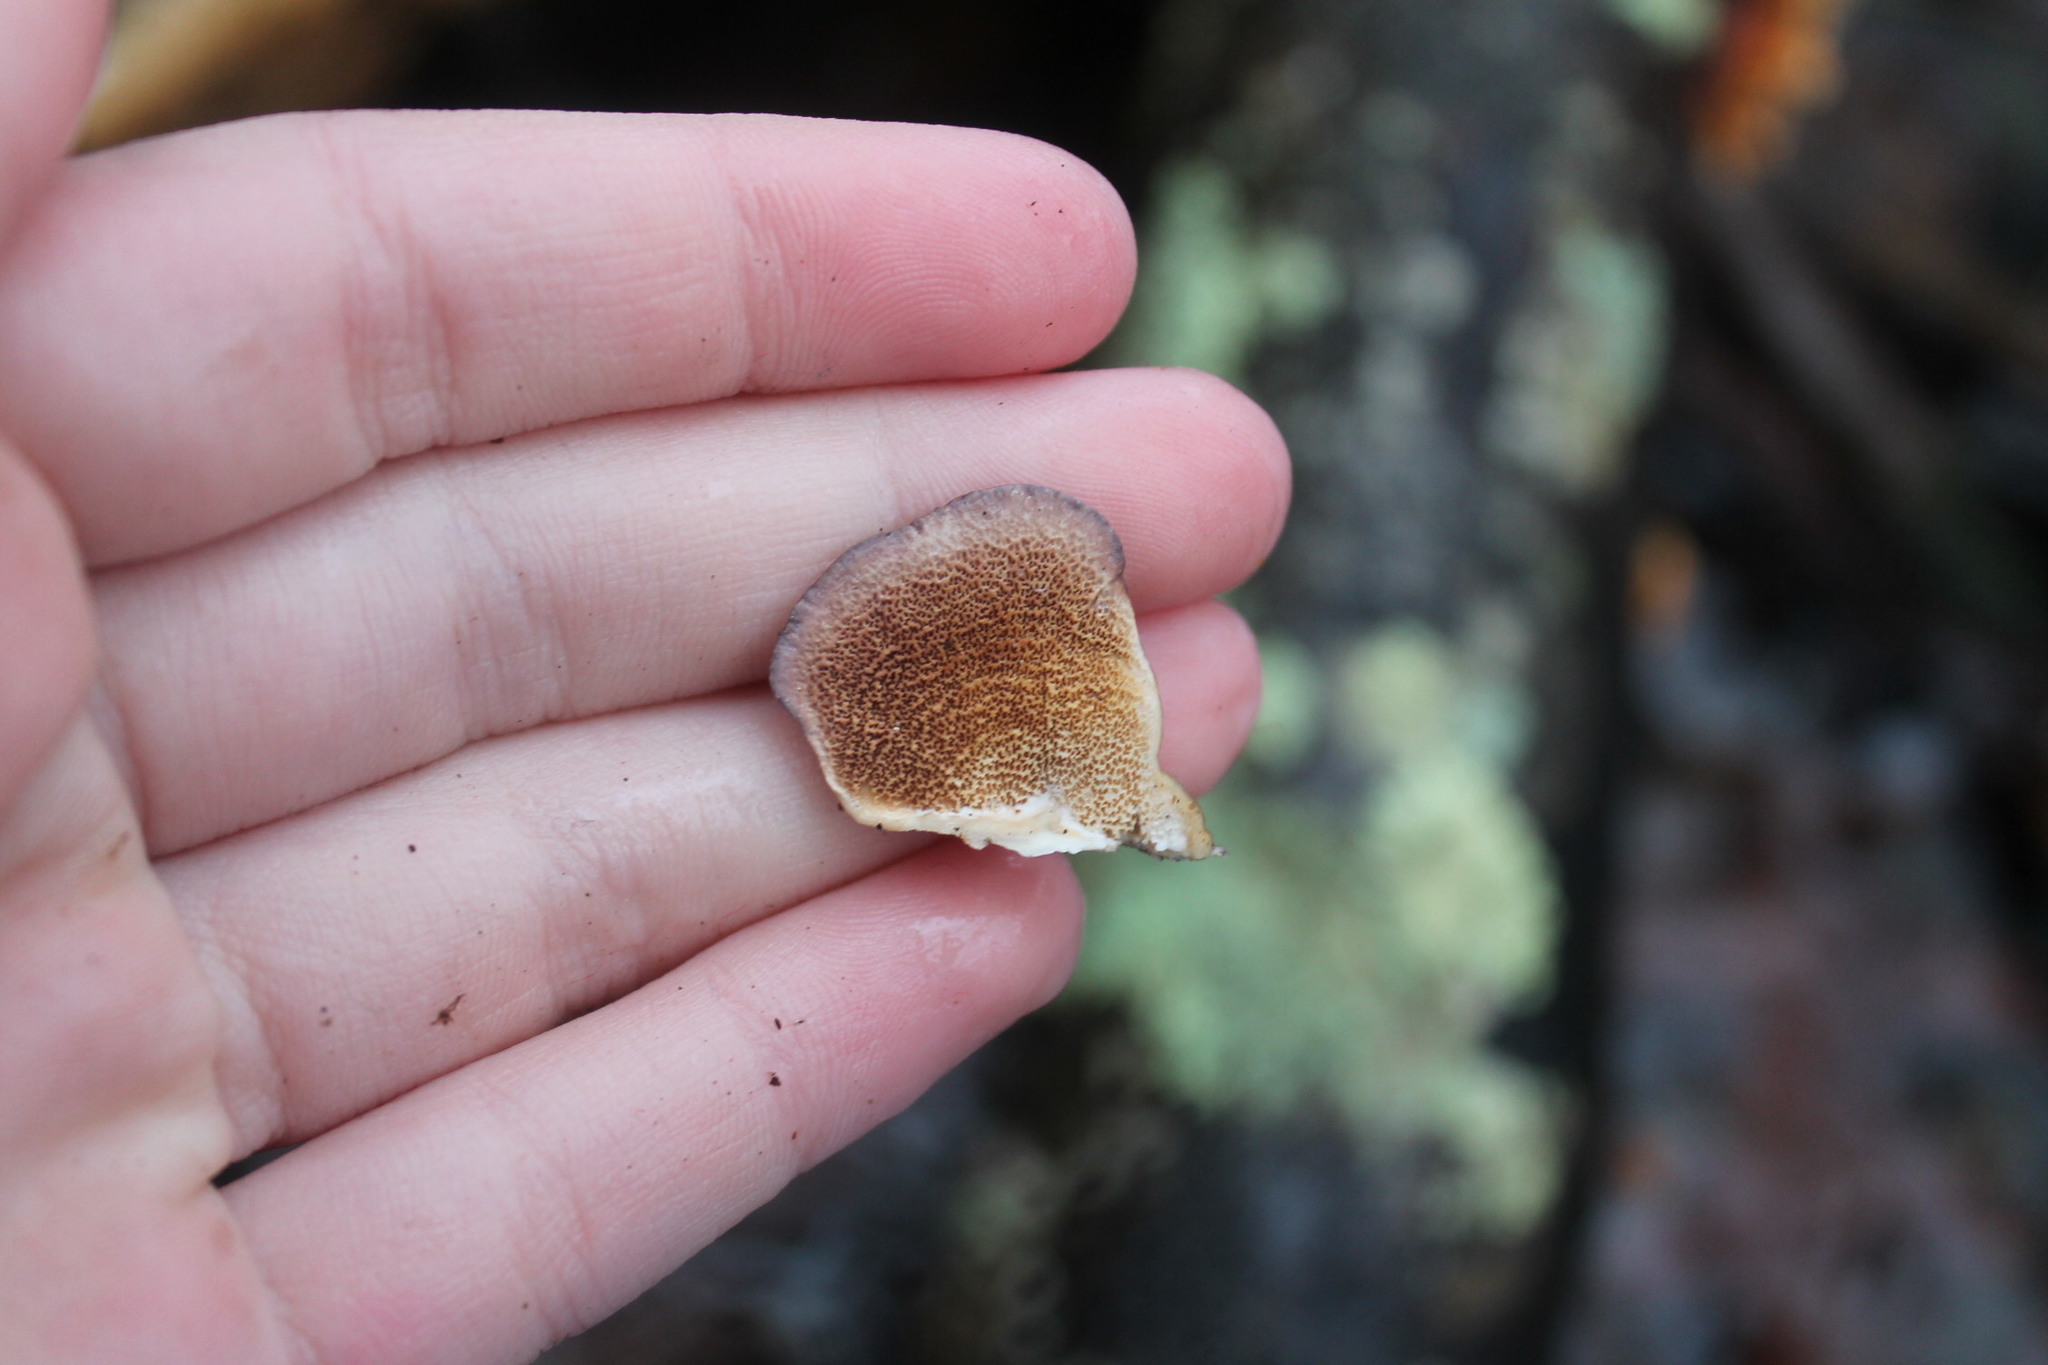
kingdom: Fungi
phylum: Basidiomycota
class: Agaricomycetes
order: Hymenochaetales
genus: Trichaptum
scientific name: Trichaptum biforme
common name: Violet-toothed polypore
